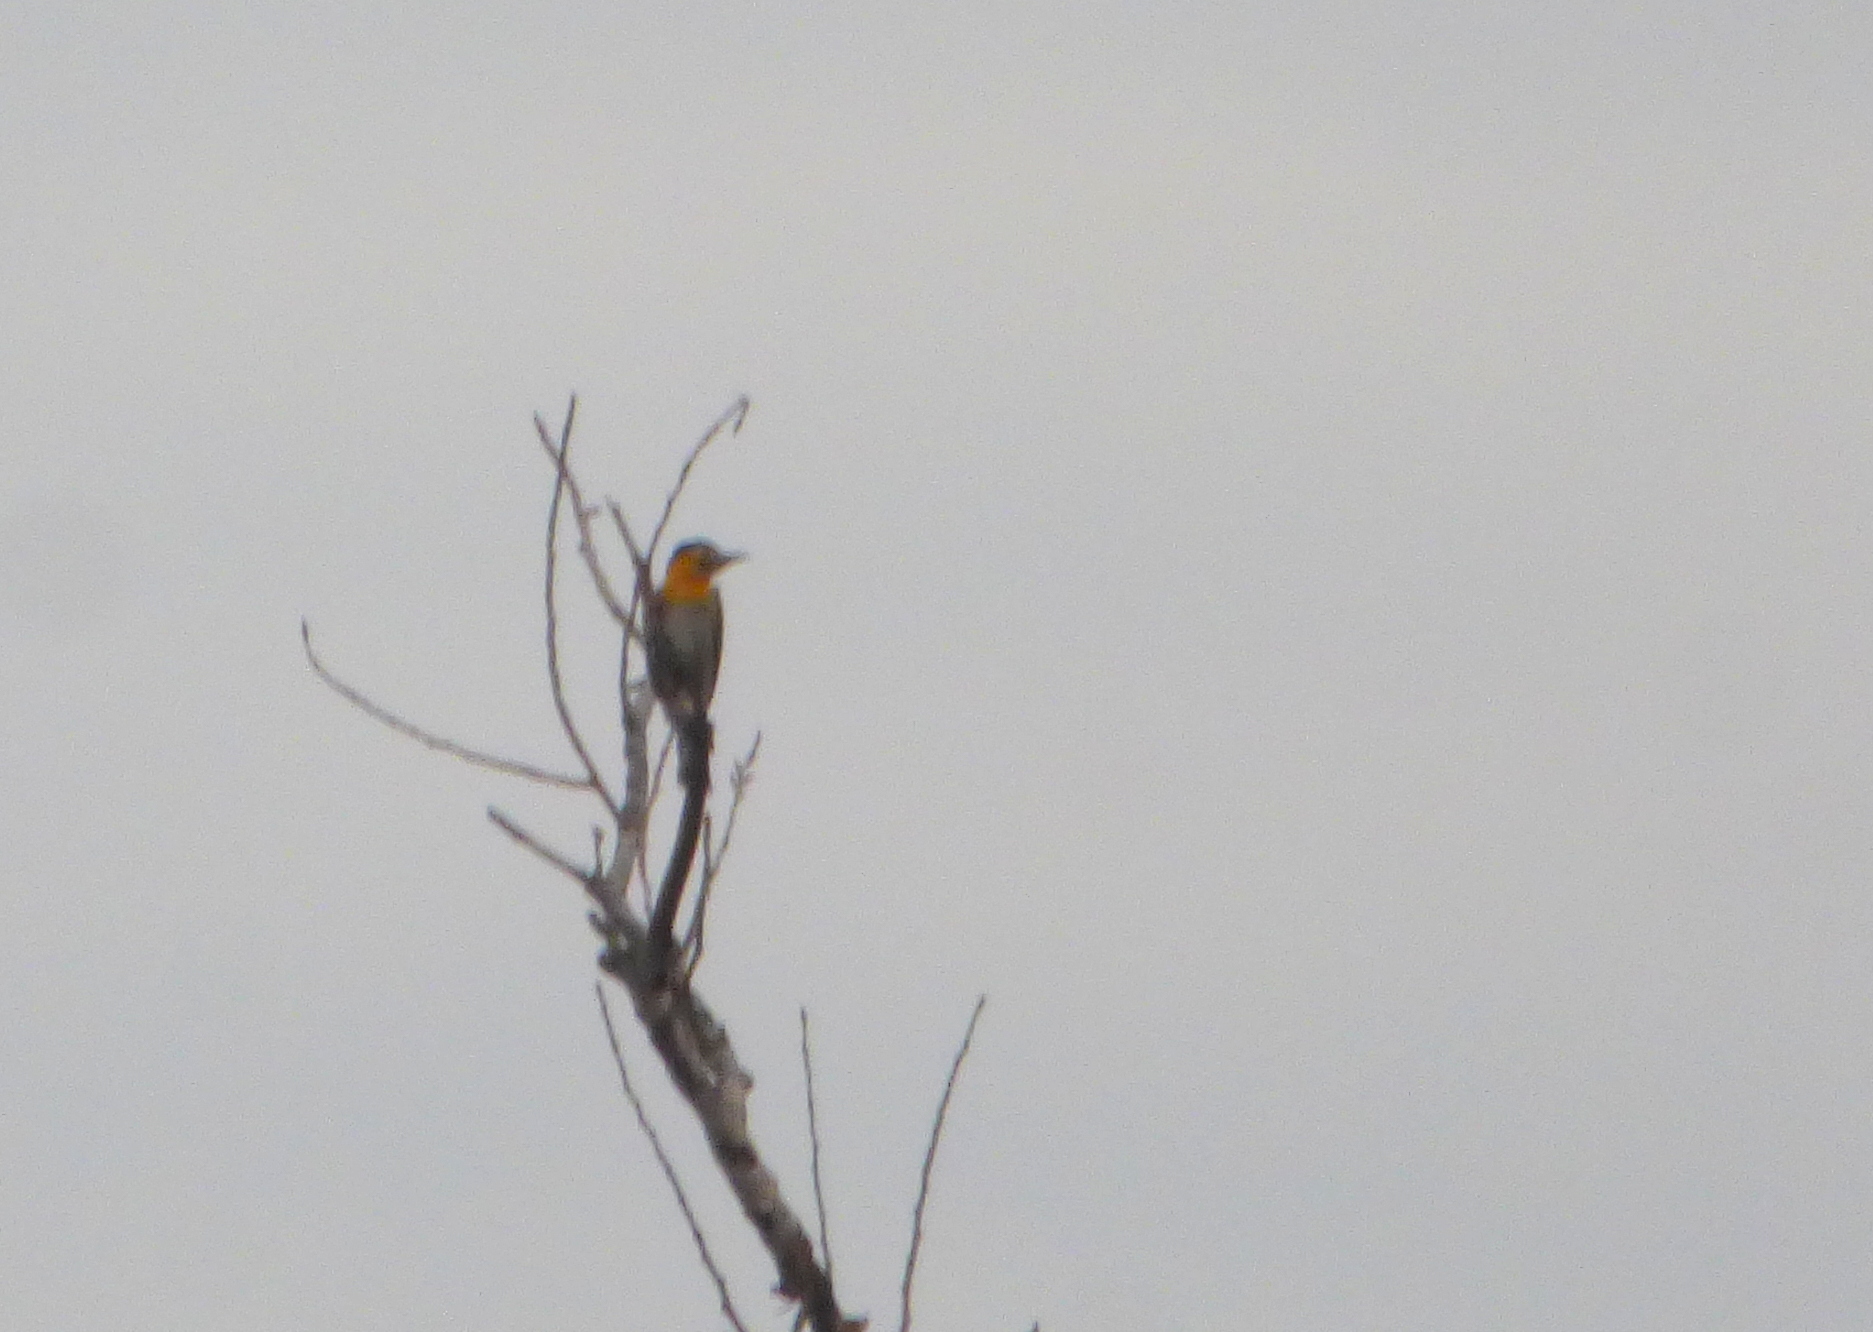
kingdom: Animalia
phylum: Chordata
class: Aves
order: Piciformes
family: Picidae
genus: Colaptes
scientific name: Colaptes campestris
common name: Campo flicker
